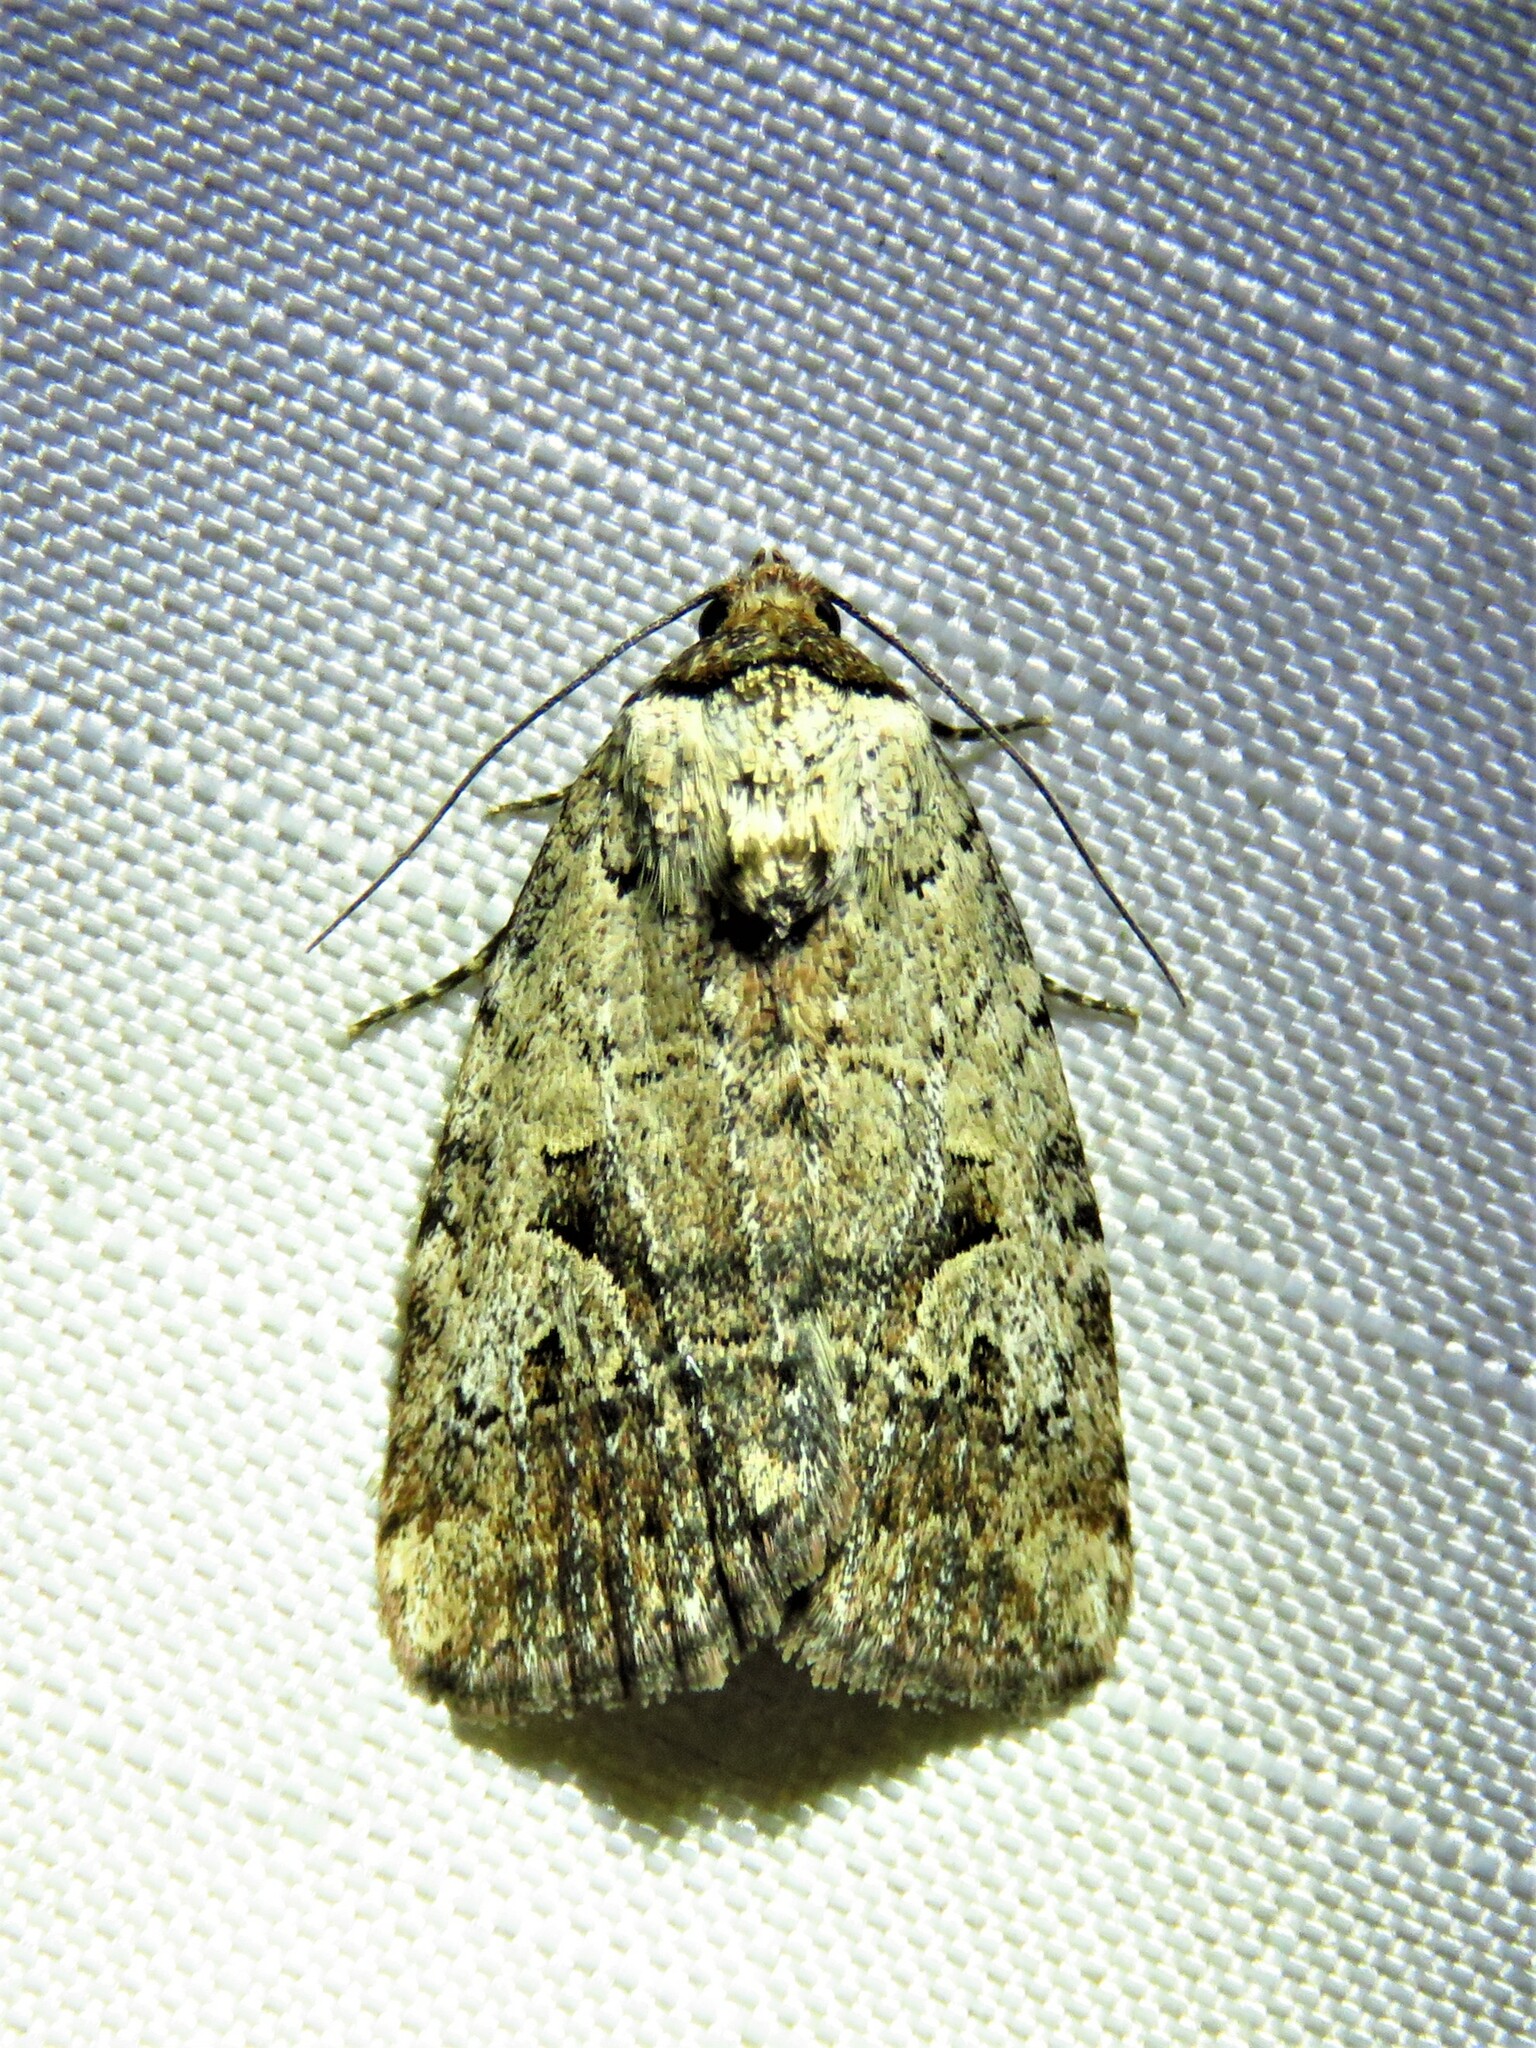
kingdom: Animalia
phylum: Arthropoda
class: Insecta
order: Lepidoptera
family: Noctuidae
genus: Elaphria
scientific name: Elaphria festivoides
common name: Festive midget
